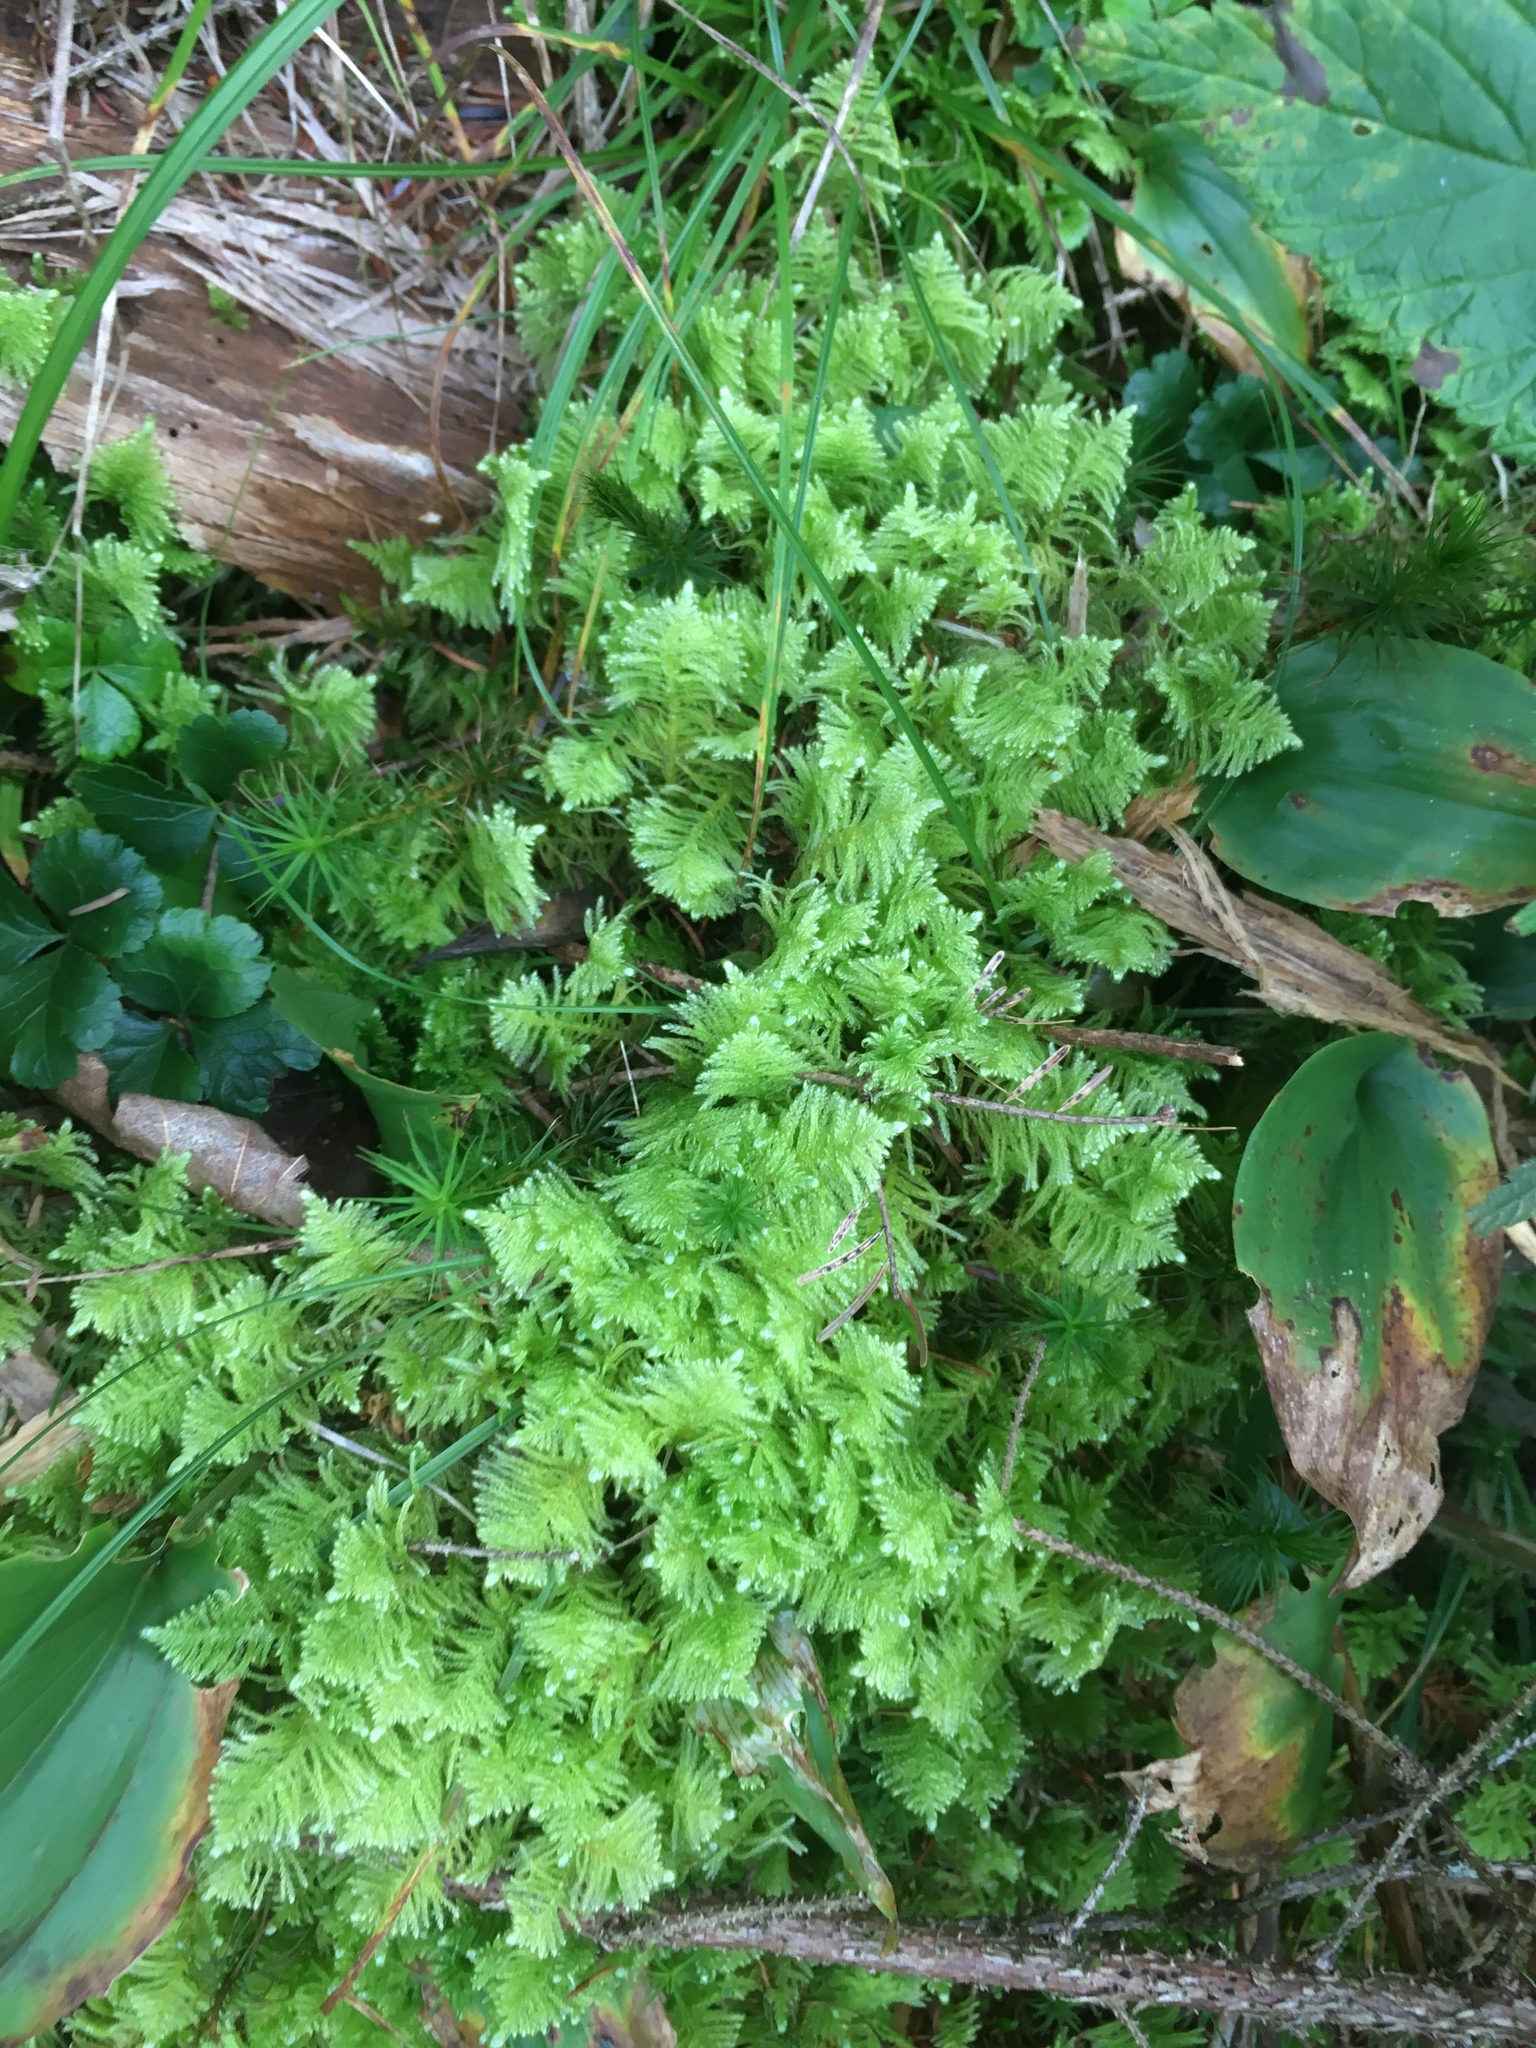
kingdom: Plantae
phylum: Bryophyta
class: Bryopsida
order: Hypnales
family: Pylaisiaceae
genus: Ptilium
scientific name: Ptilium crista-castrensis
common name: Knight's plume moss
